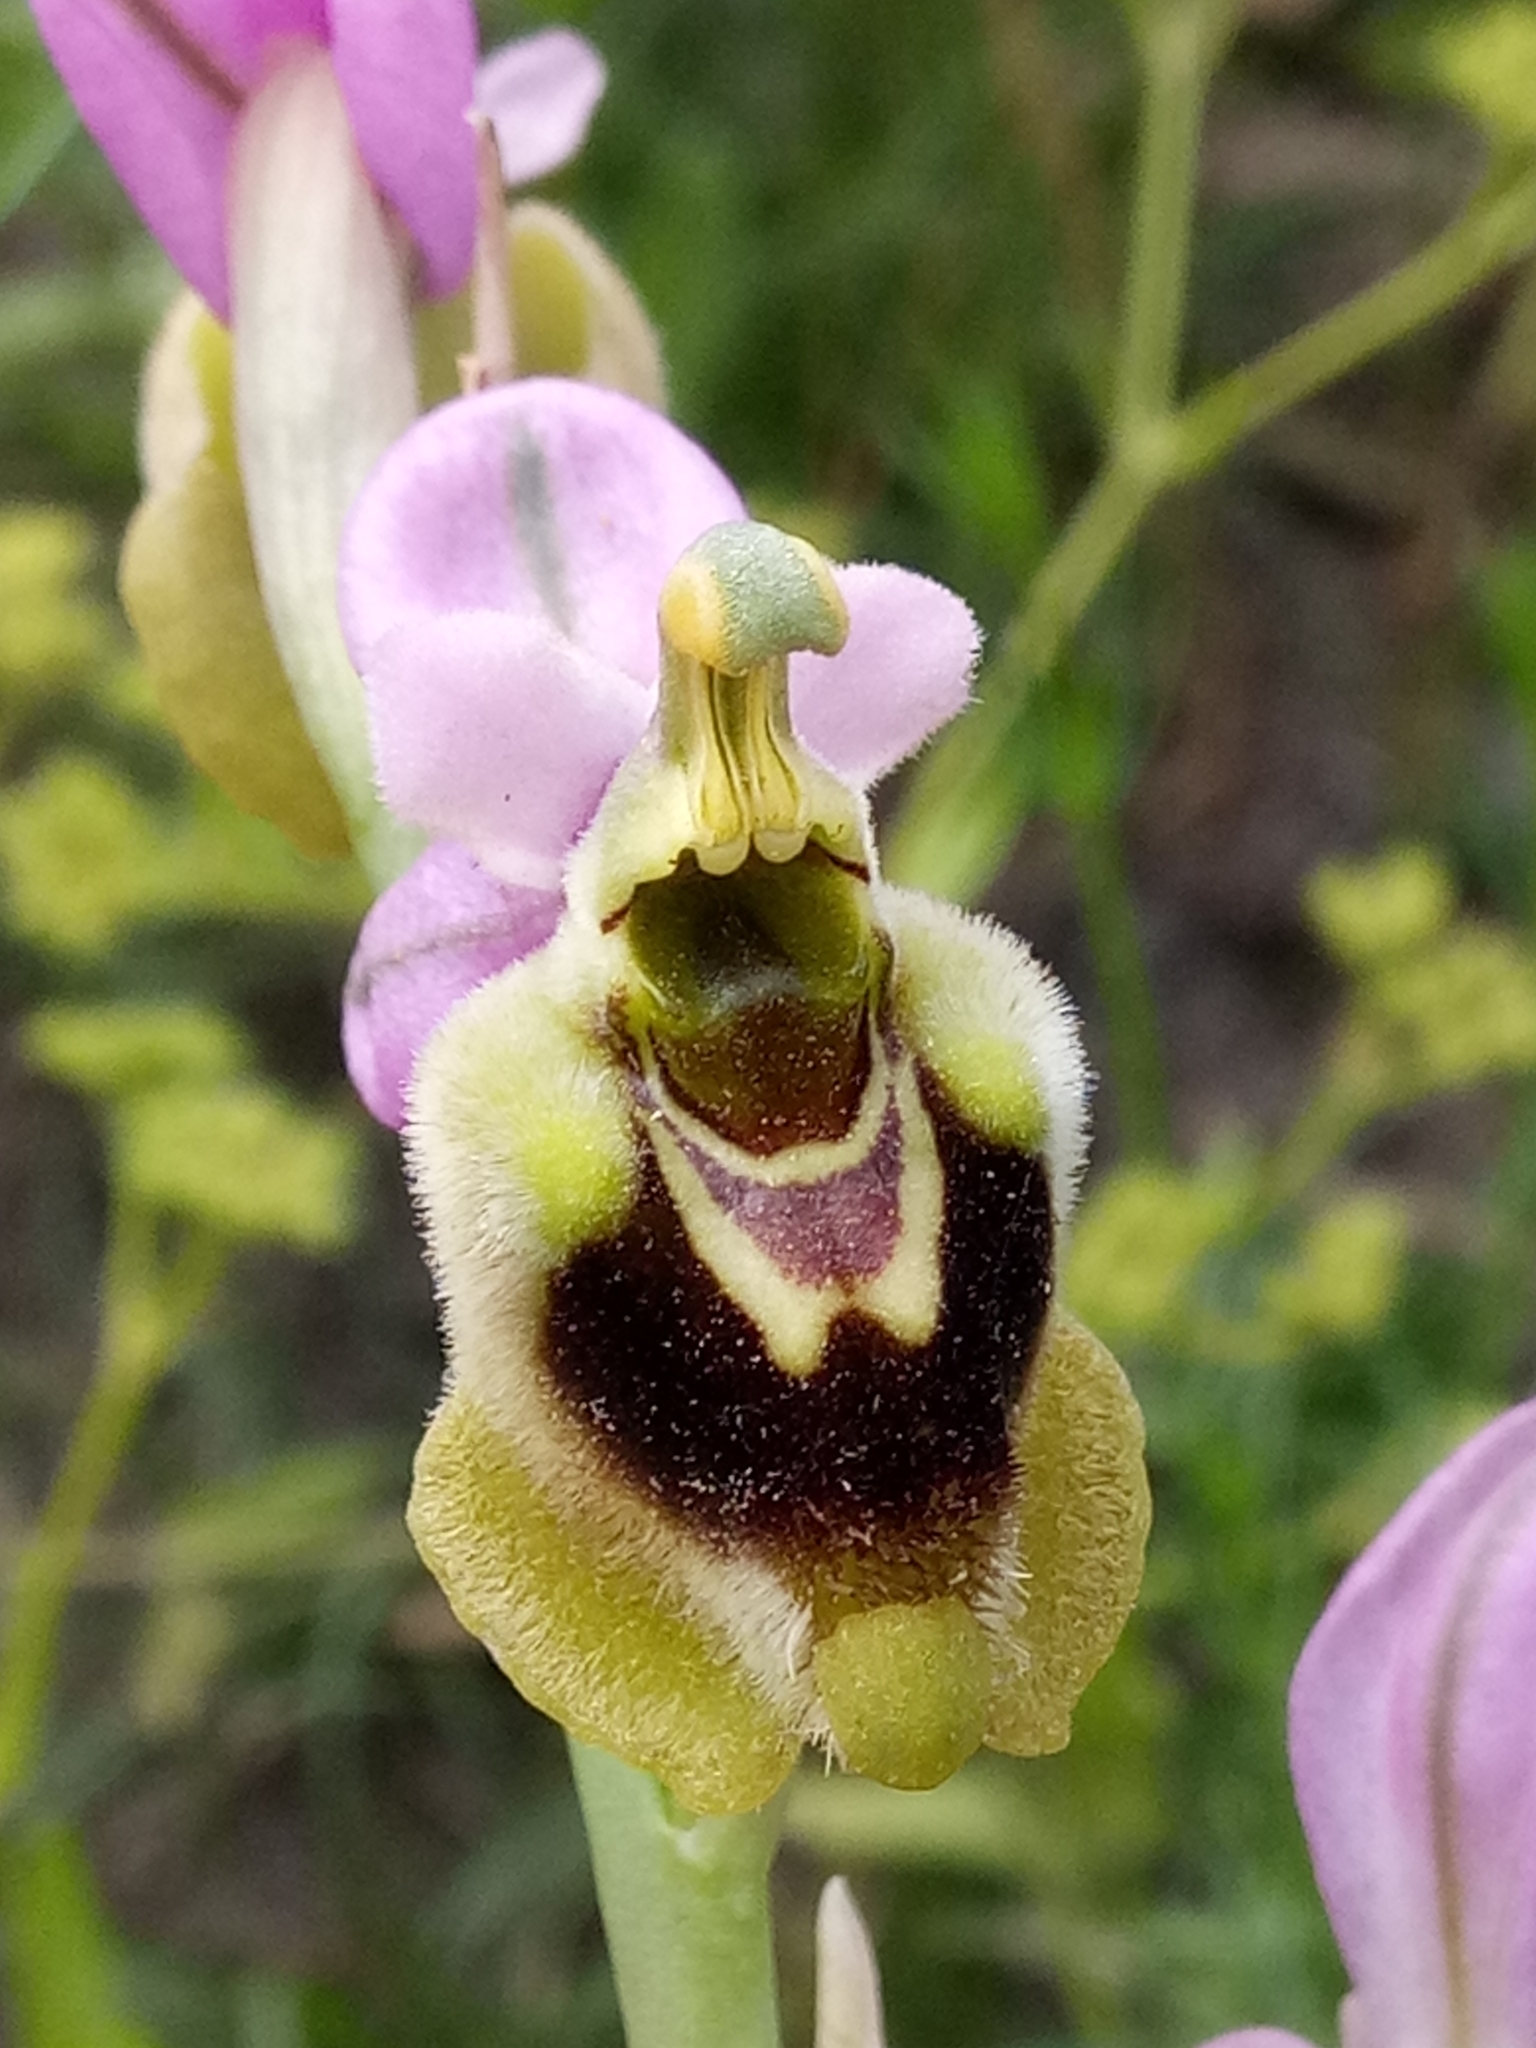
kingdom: Plantae
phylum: Tracheophyta
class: Liliopsida
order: Asparagales
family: Orchidaceae
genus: Ophrys
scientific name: Ophrys tenthredinifera
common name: Sawfly orchid
